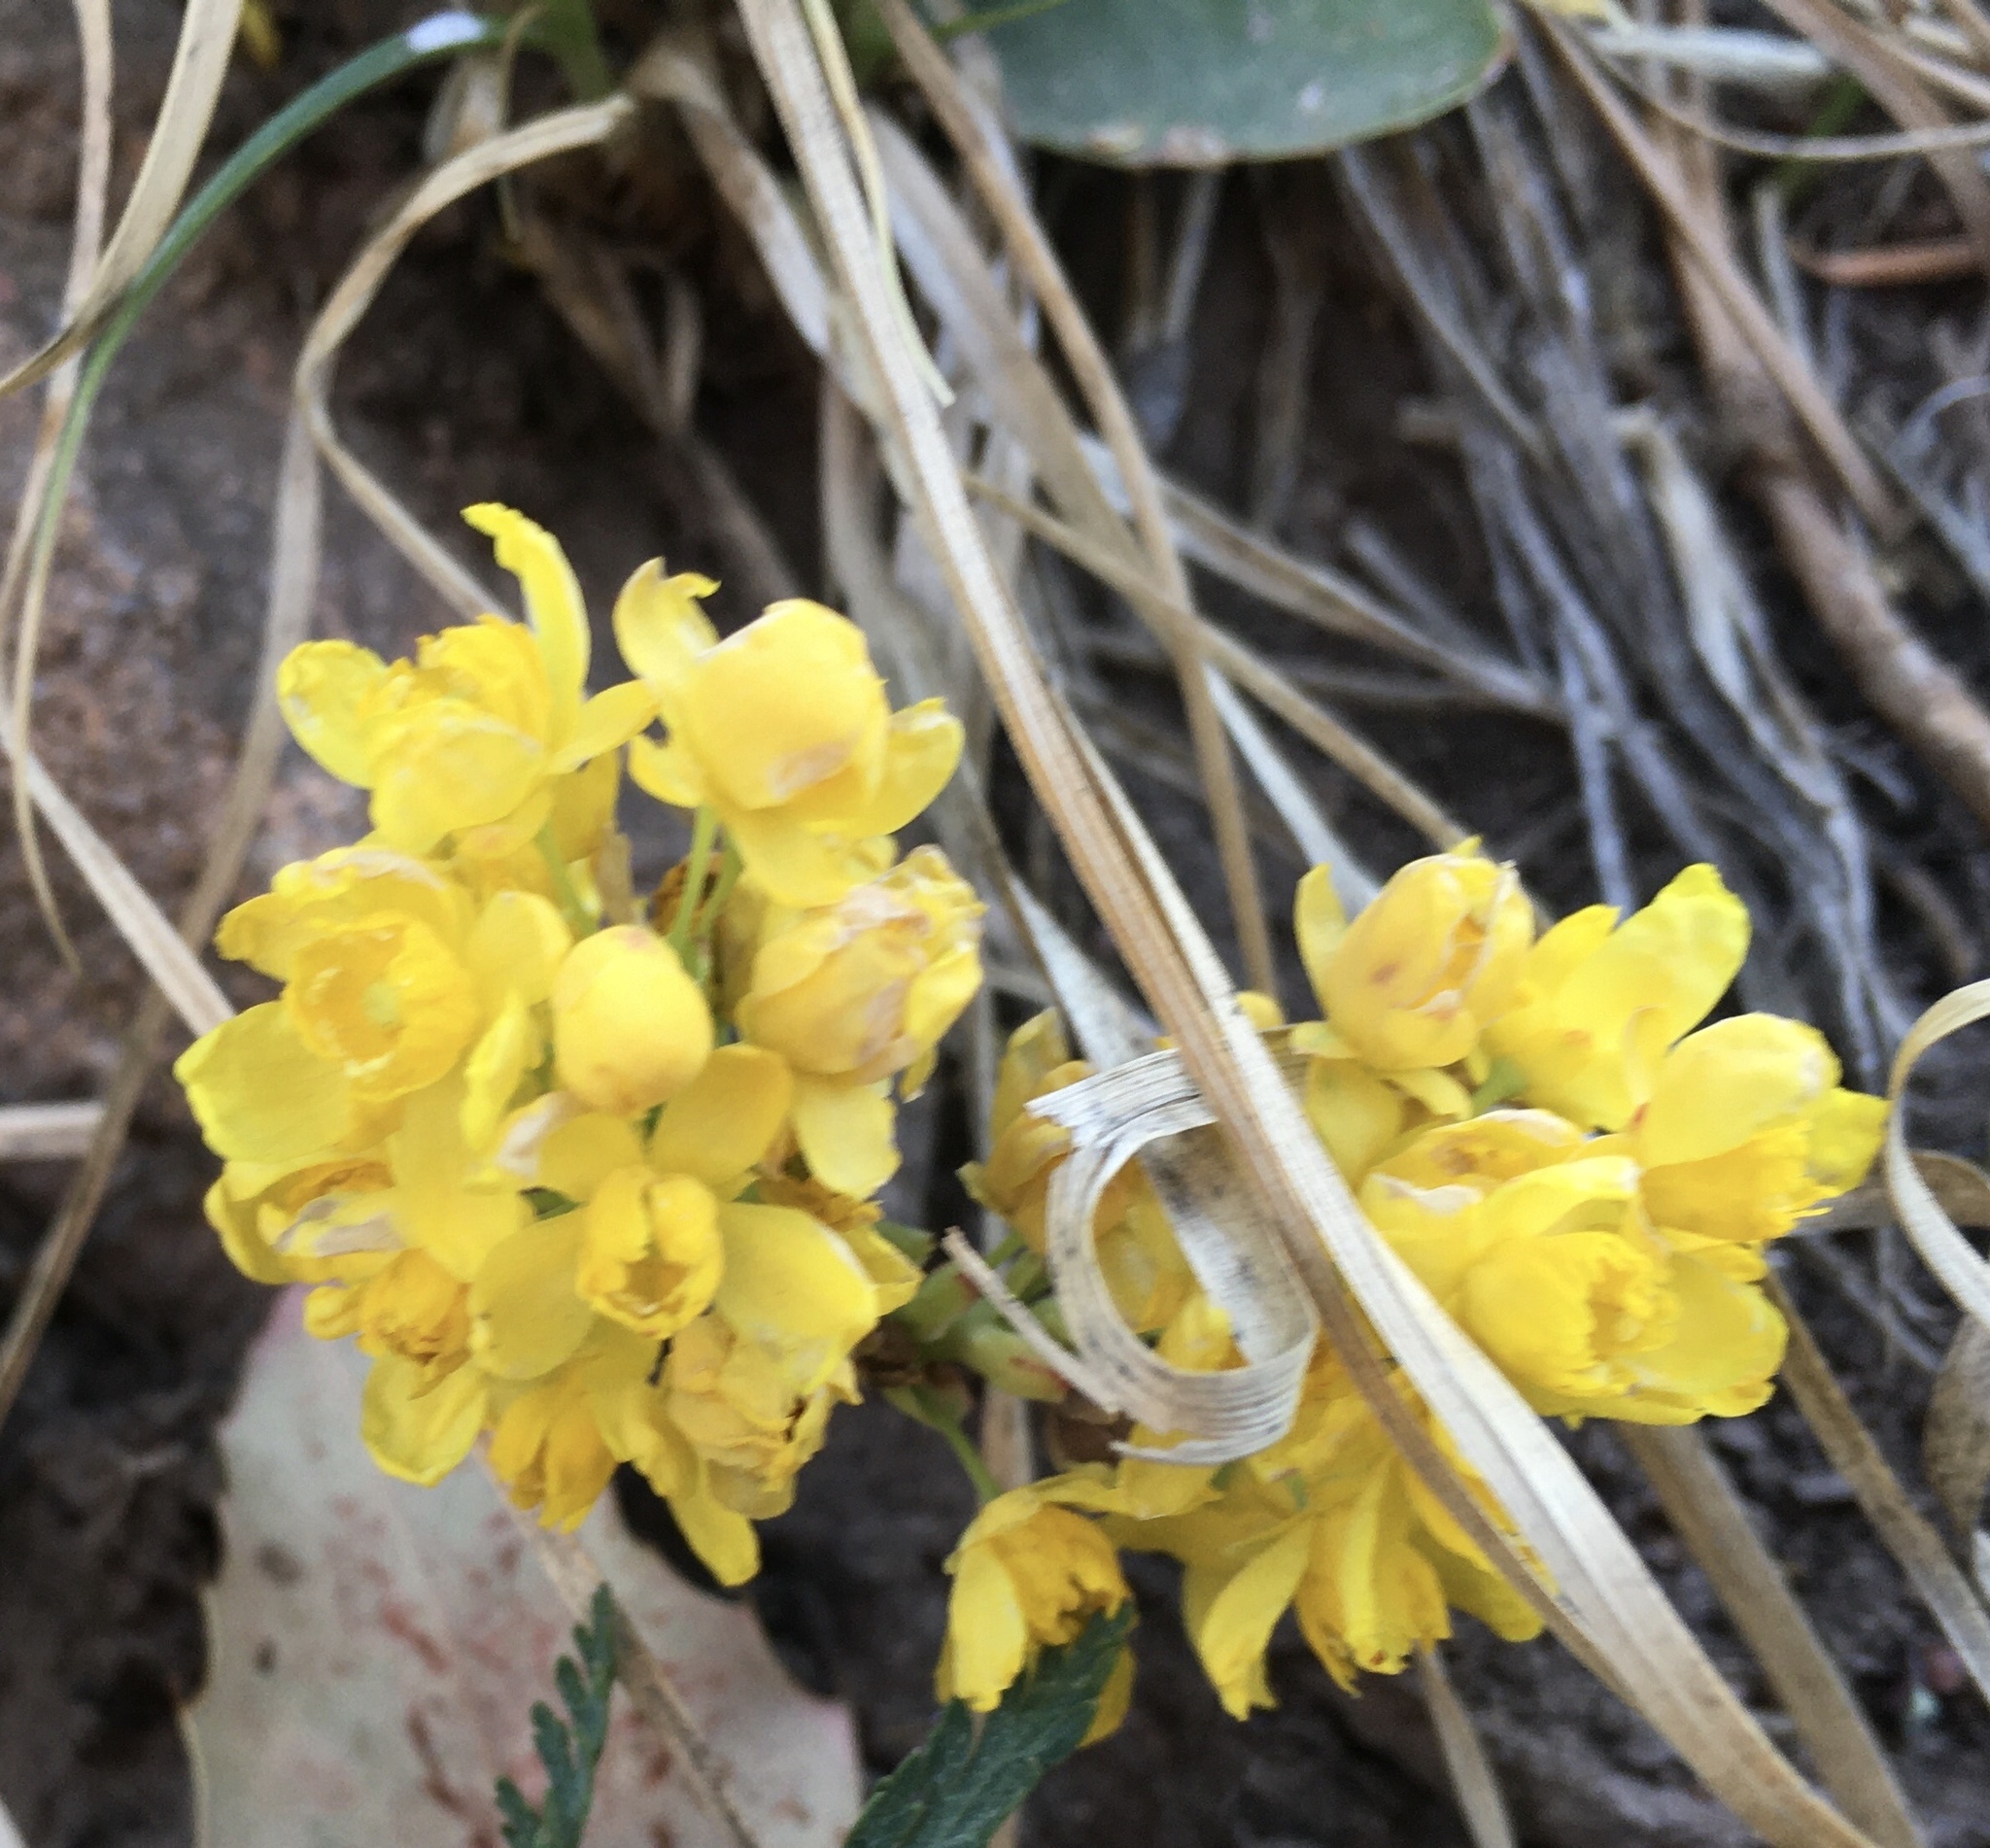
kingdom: Plantae
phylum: Tracheophyta
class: Magnoliopsida
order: Ranunculales
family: Berberidaceae
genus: Berberis
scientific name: Berberis
